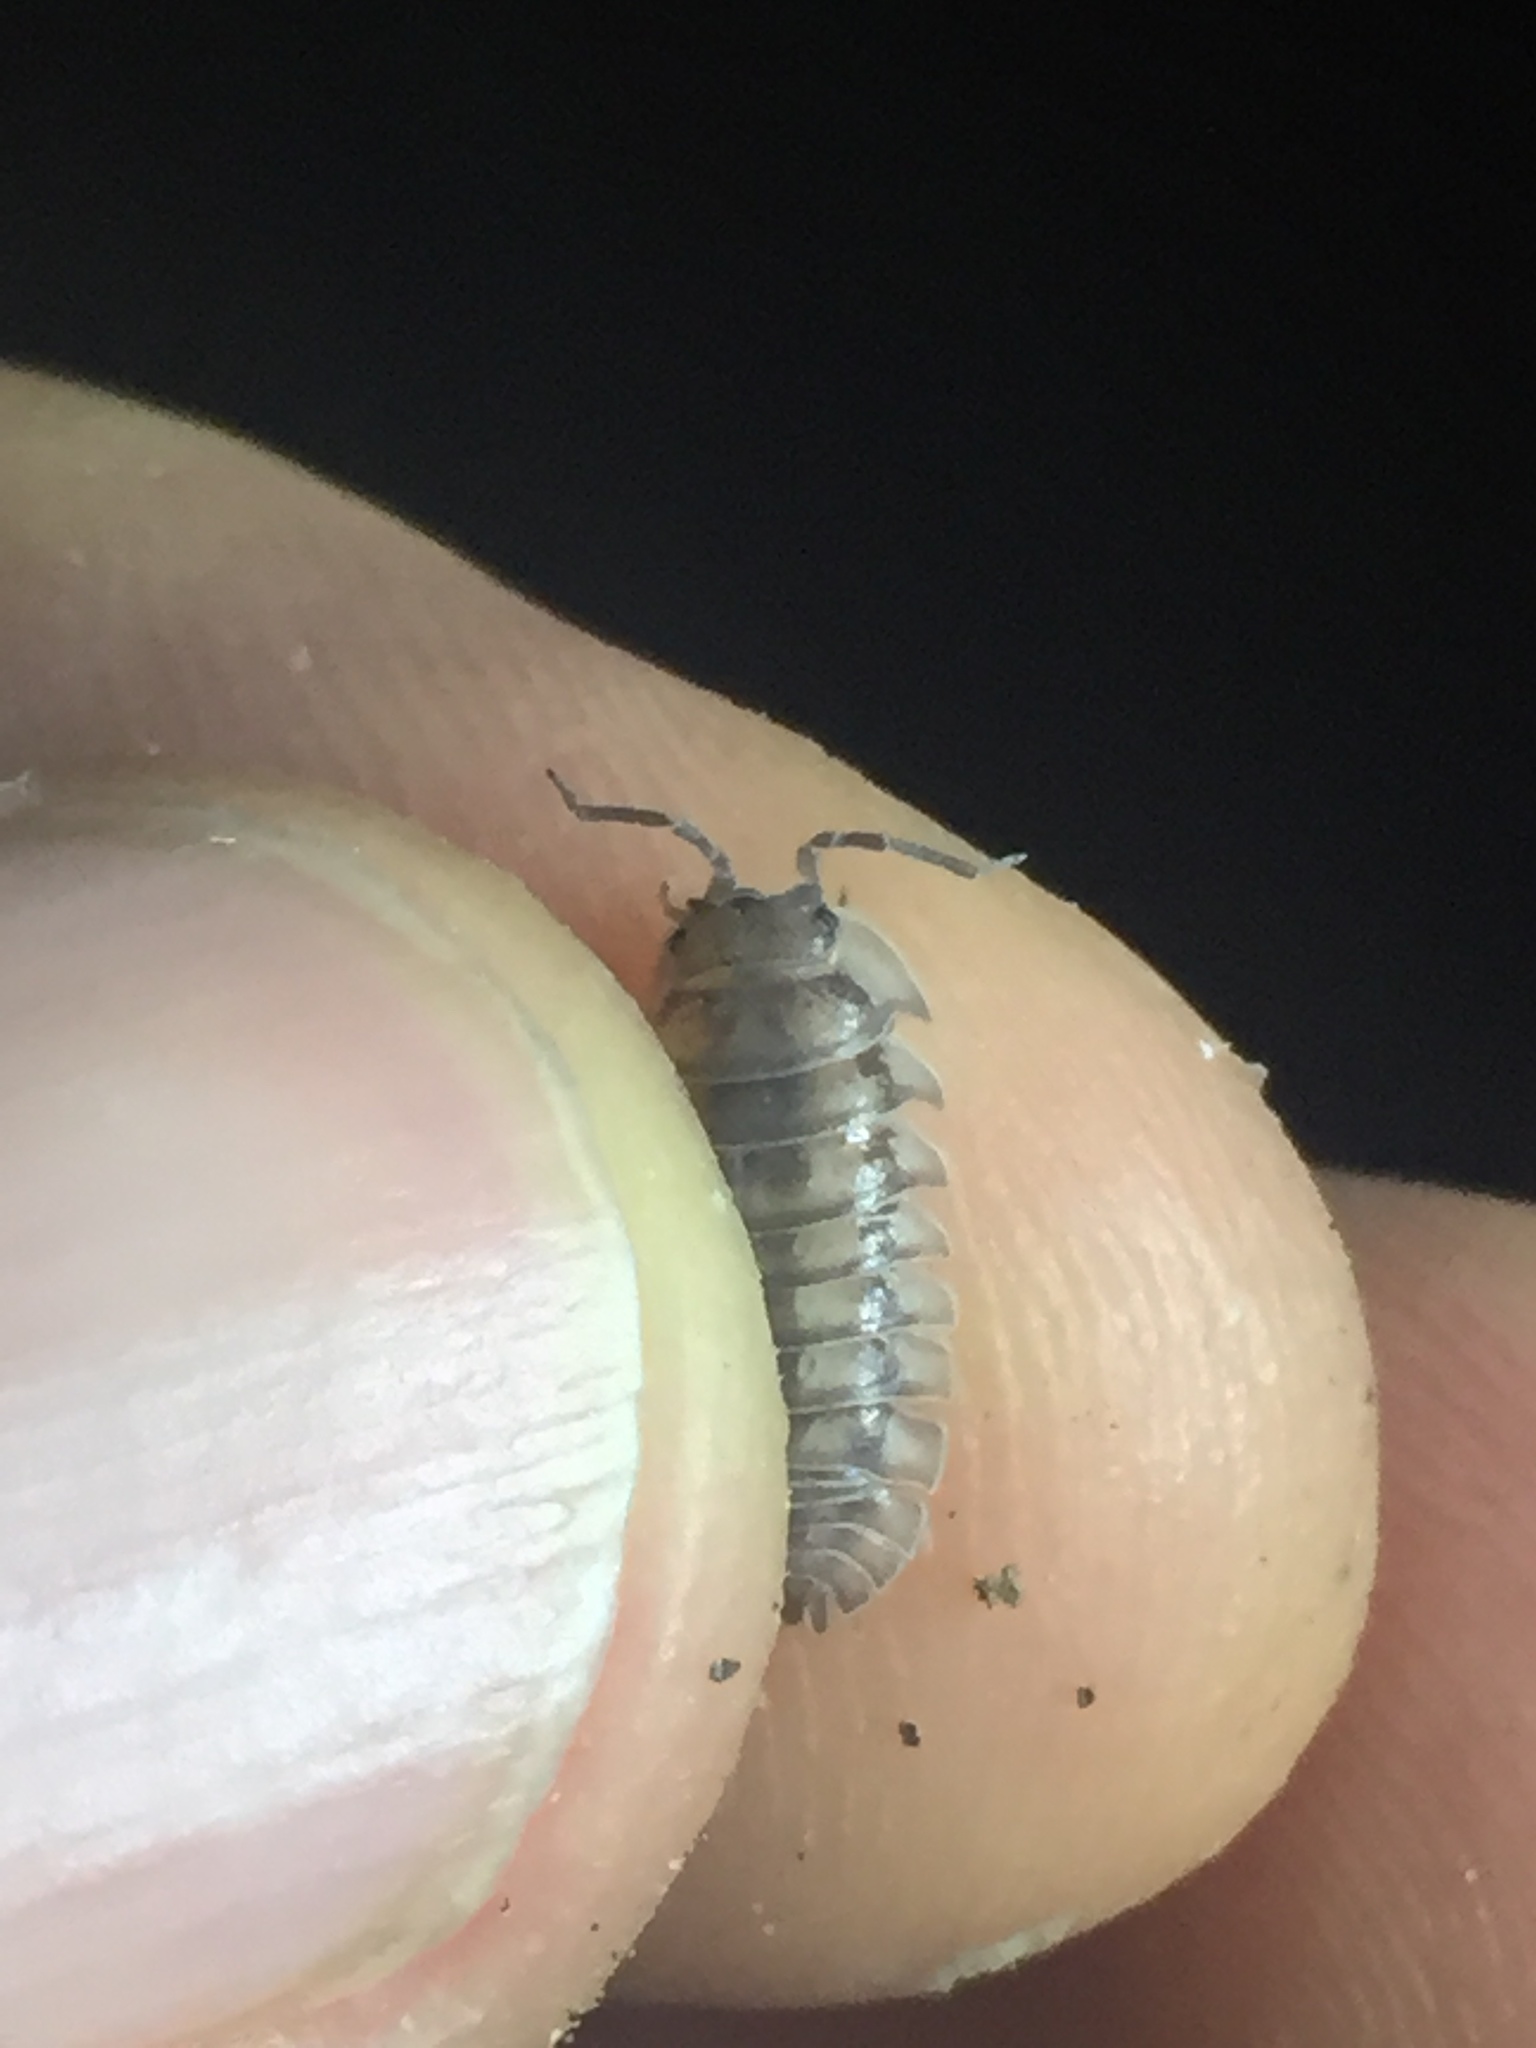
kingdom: Animalia
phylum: Arthropoda
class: Malacostraca
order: Isopoda
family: Armadillidiidae
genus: Armadillidium
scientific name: Armadillidium nasatum
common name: Isopod
